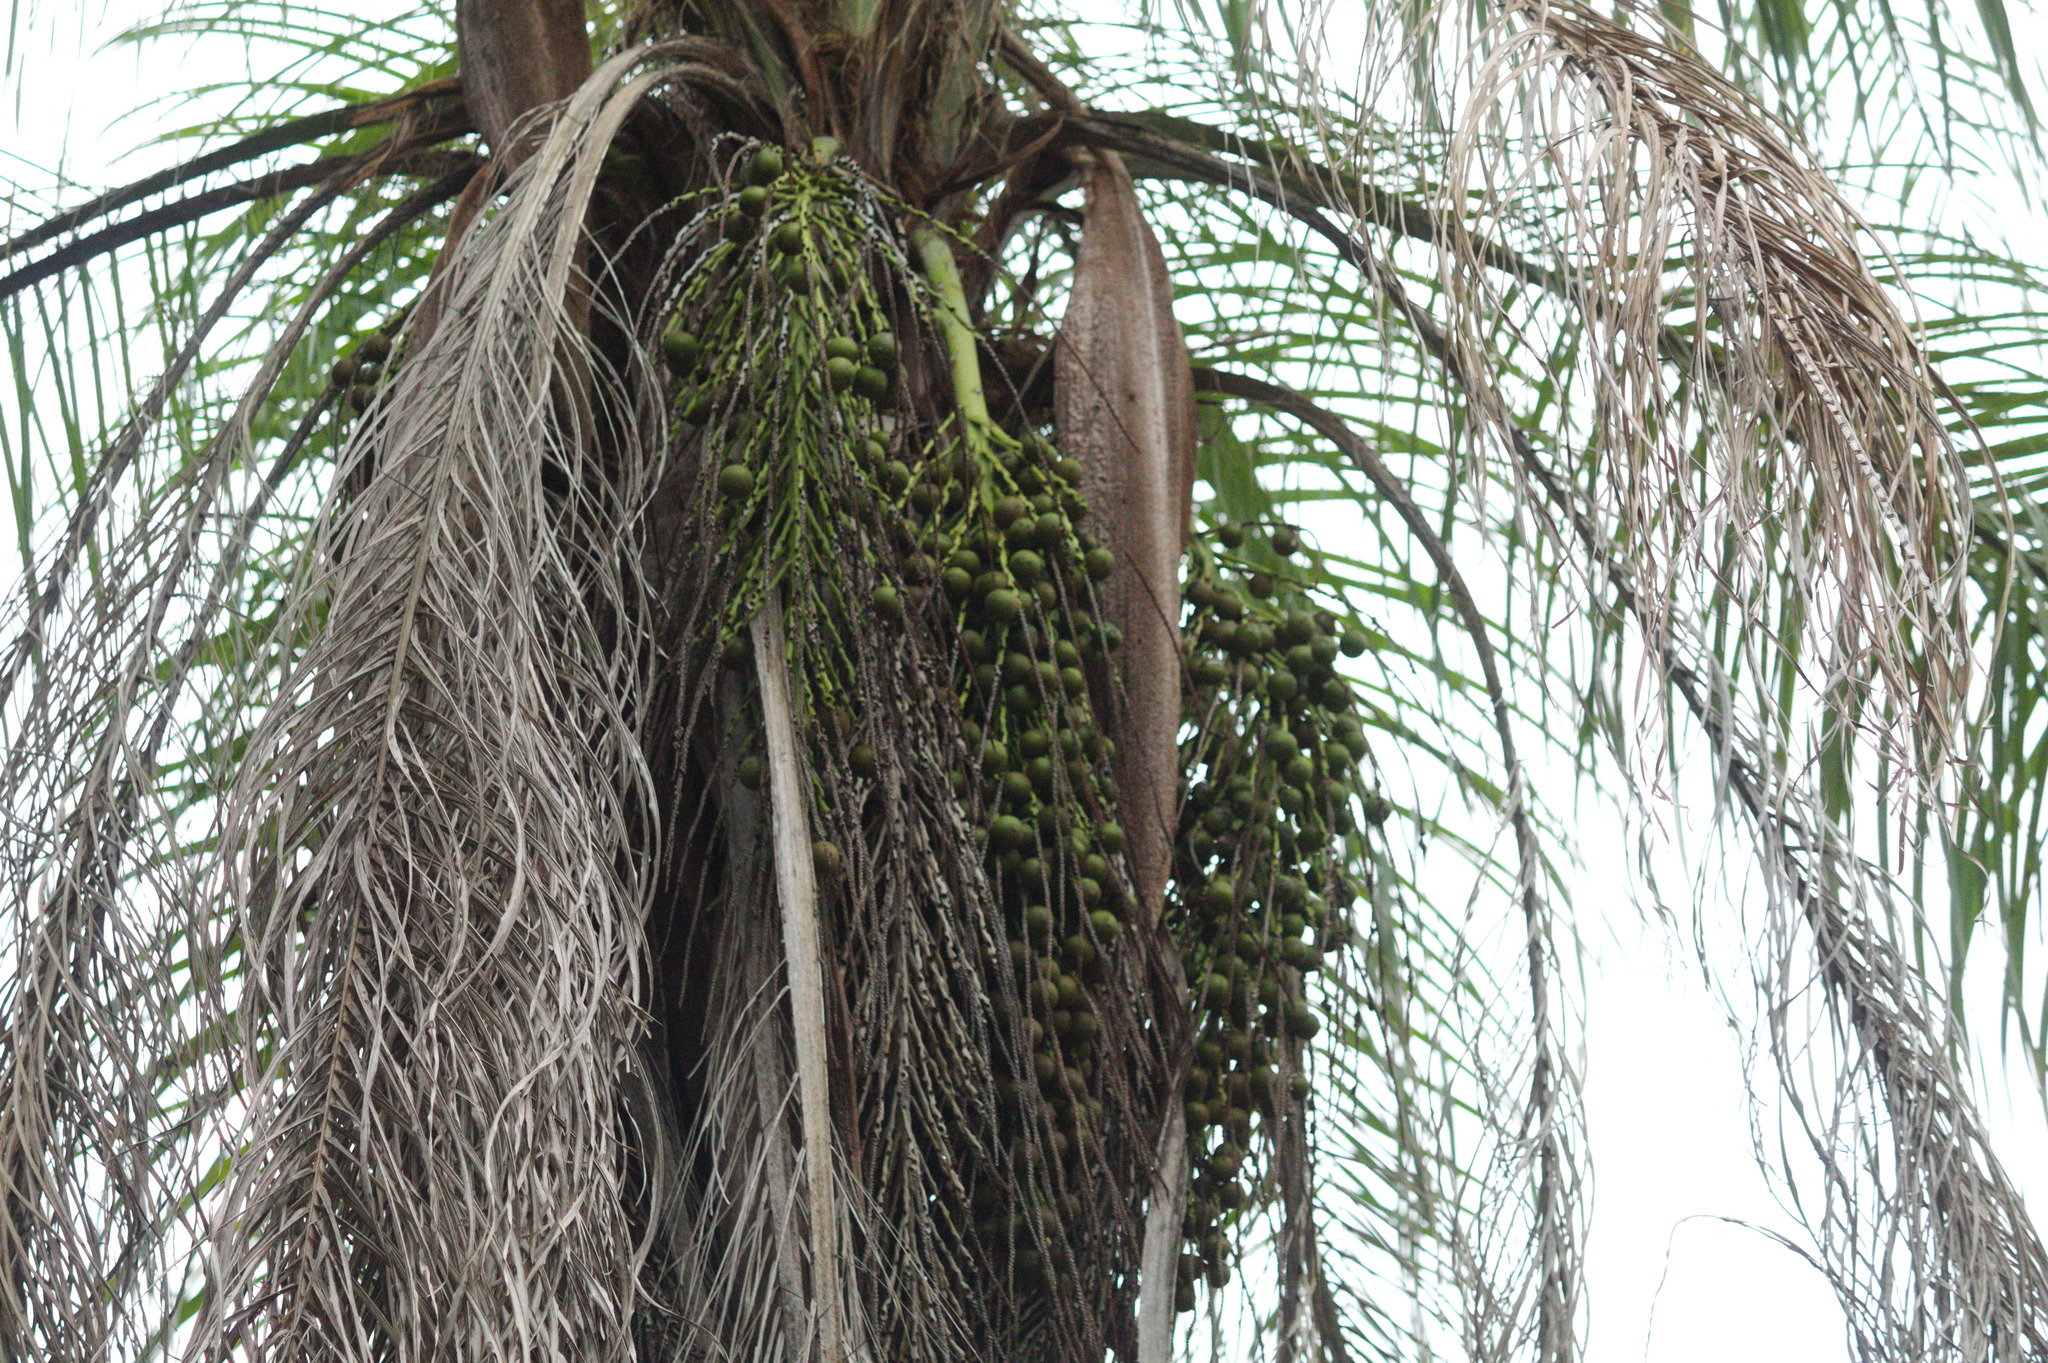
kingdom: Plantae
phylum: Tracheophyta
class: Liliopsida
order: Arecales
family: Arecaceae
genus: Acrocomia
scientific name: Acrocomia aculeata
